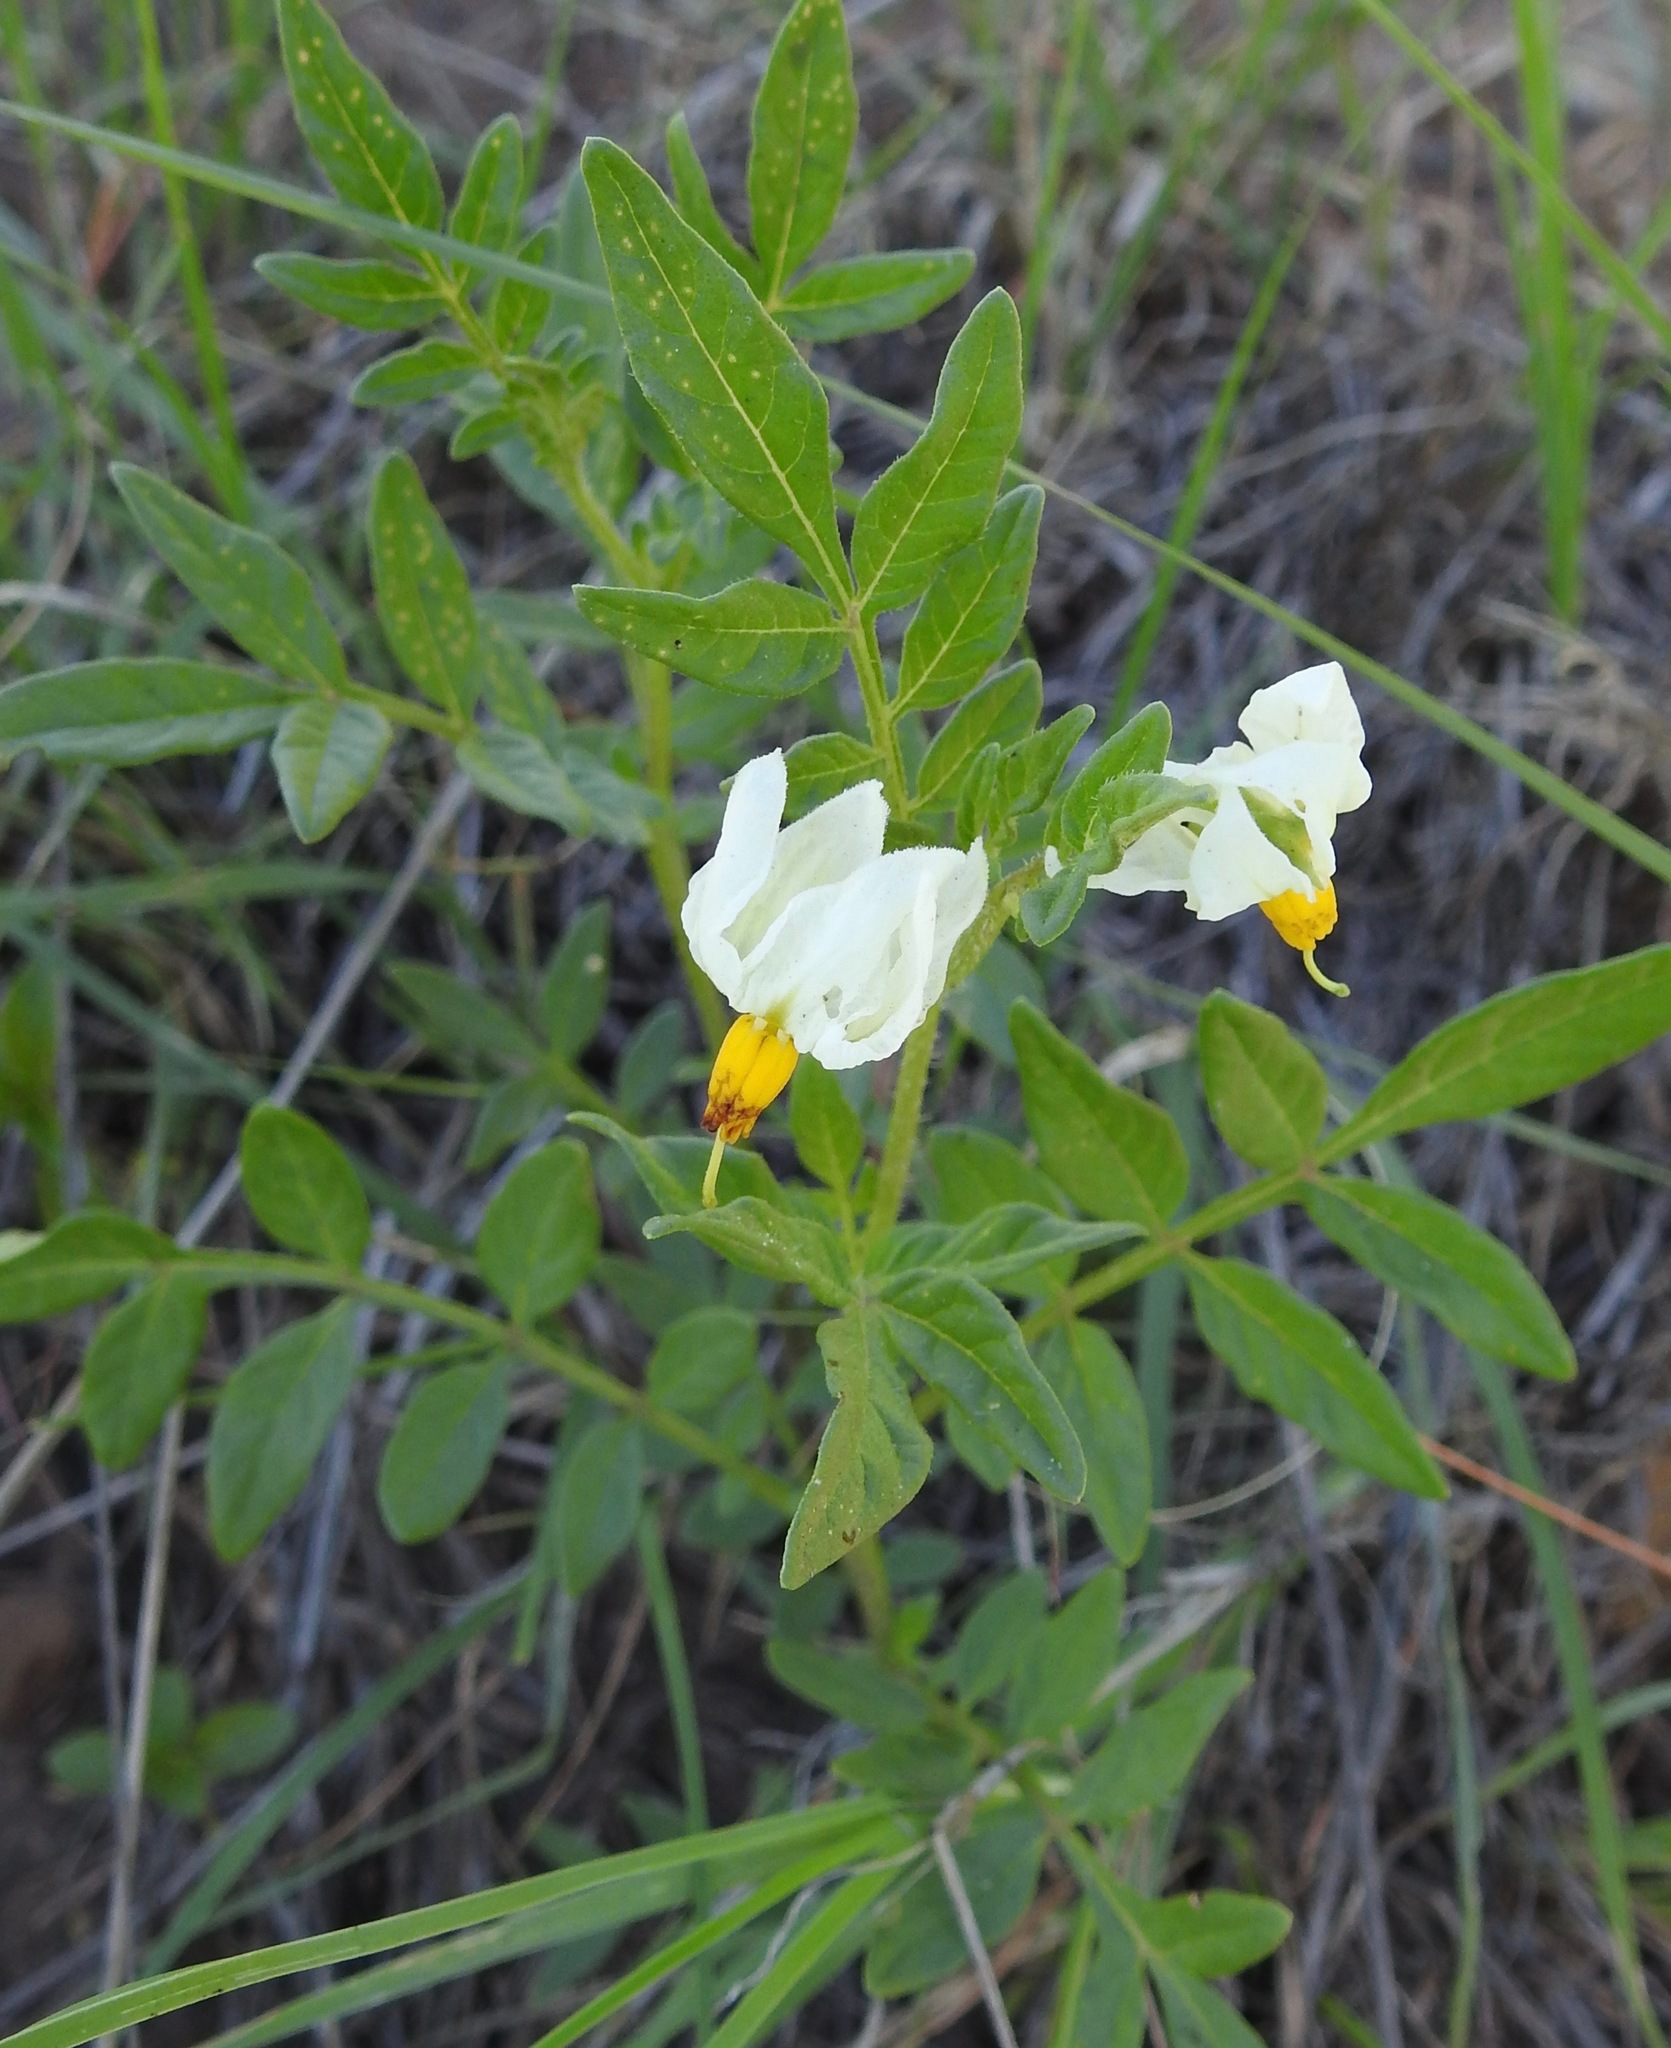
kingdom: Plantae
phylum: Tracheophyta
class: Magnoliopsida
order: Solanales
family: Solanaceae
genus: Solanum
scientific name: Solanum jamesii
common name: Wild potato
